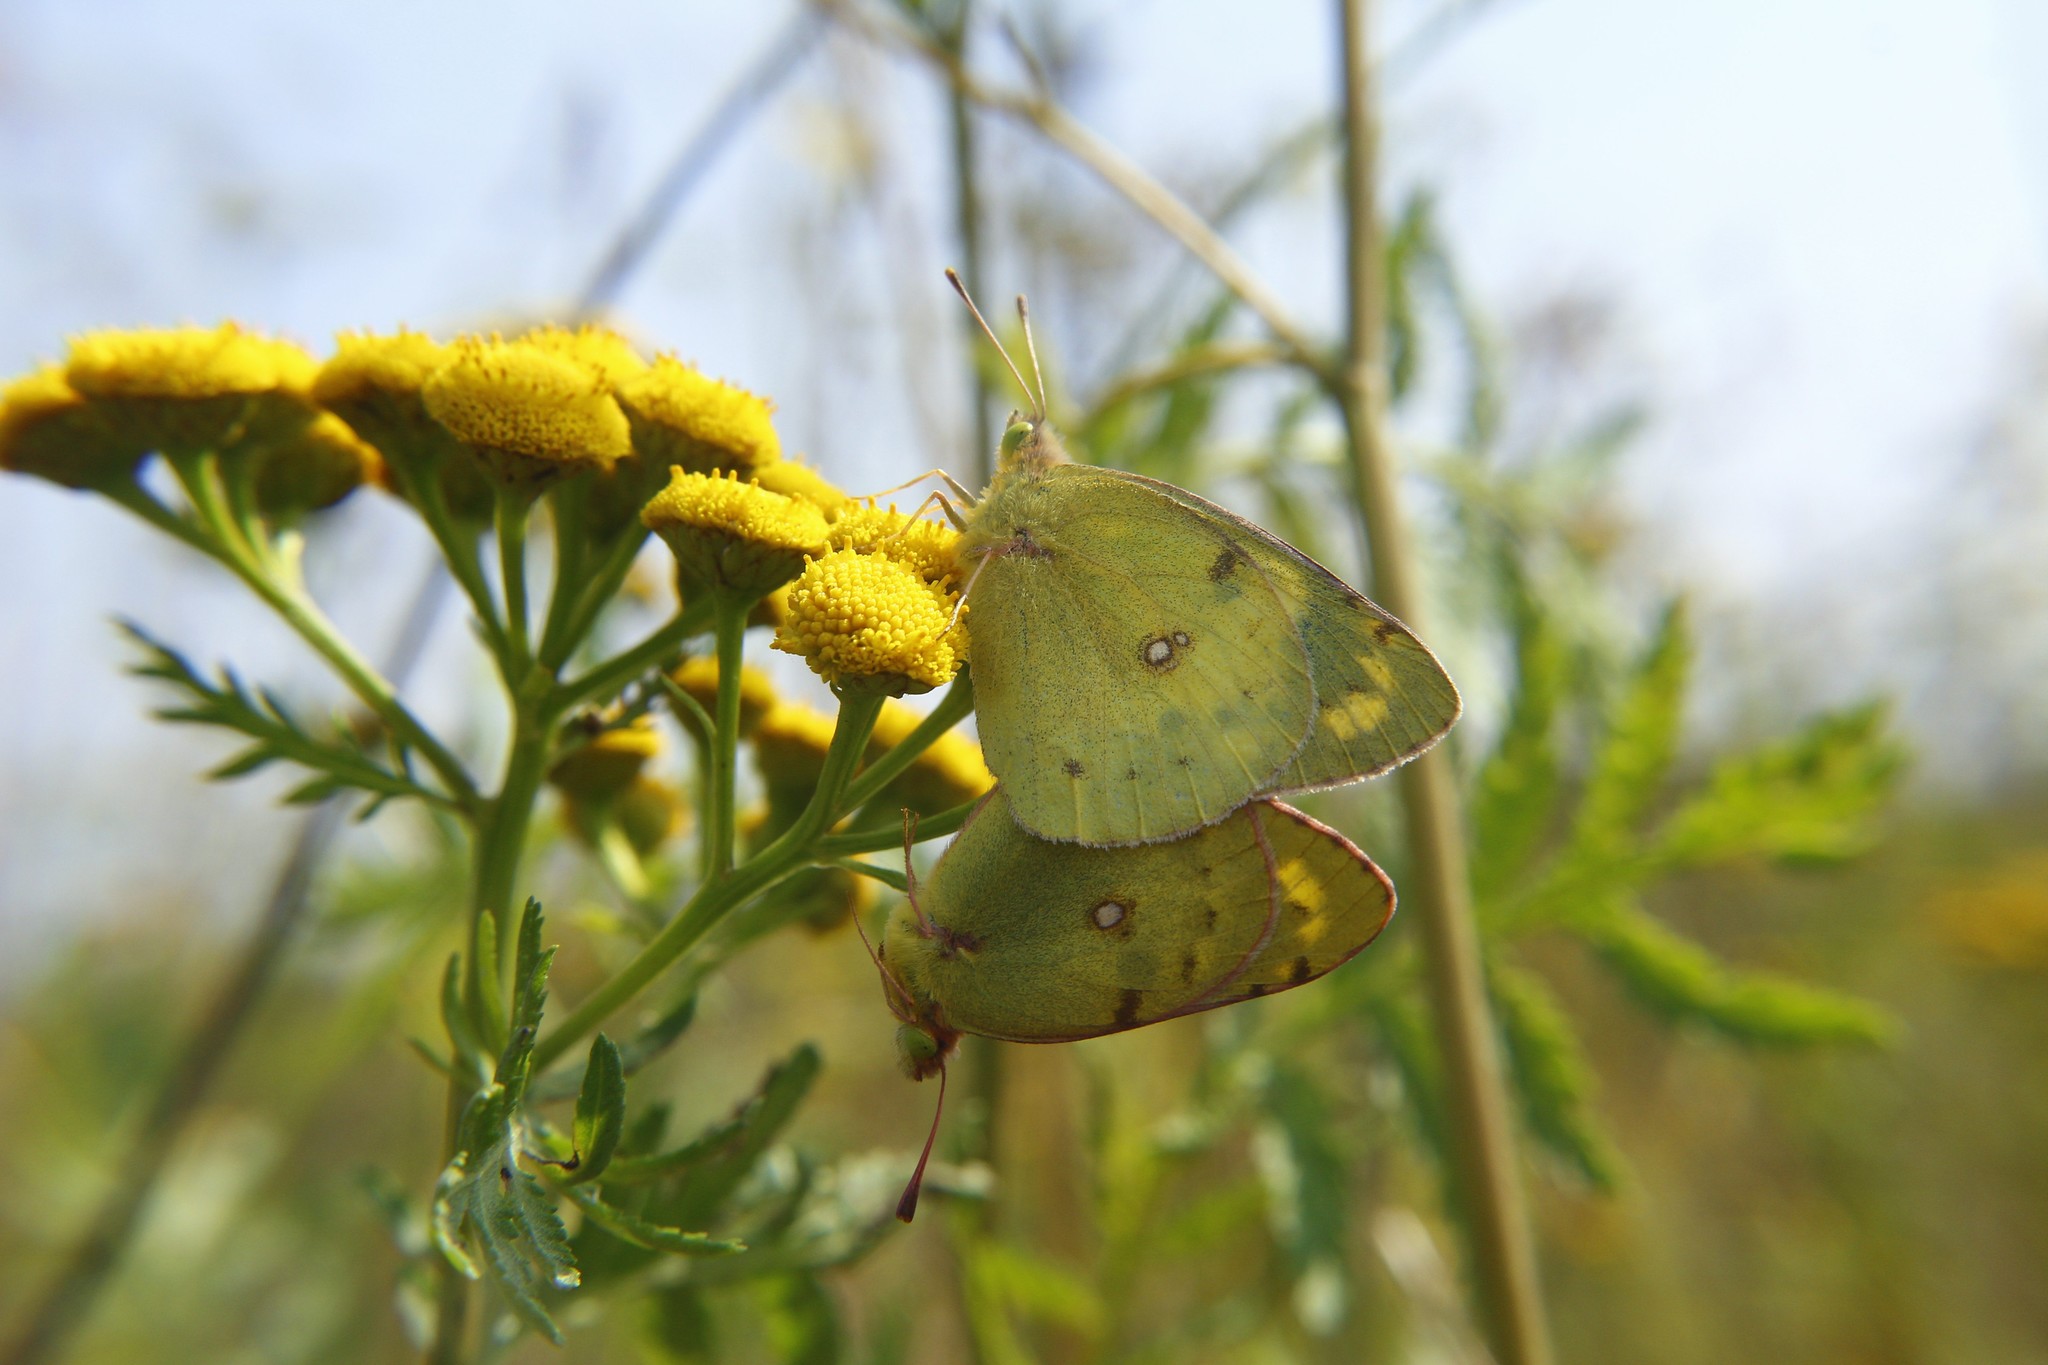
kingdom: Animalia
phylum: Arthropoda
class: Insecta
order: Lepidoptera
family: Pieridae
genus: Colias
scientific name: Colias hyale
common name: Pale clouded yellow
